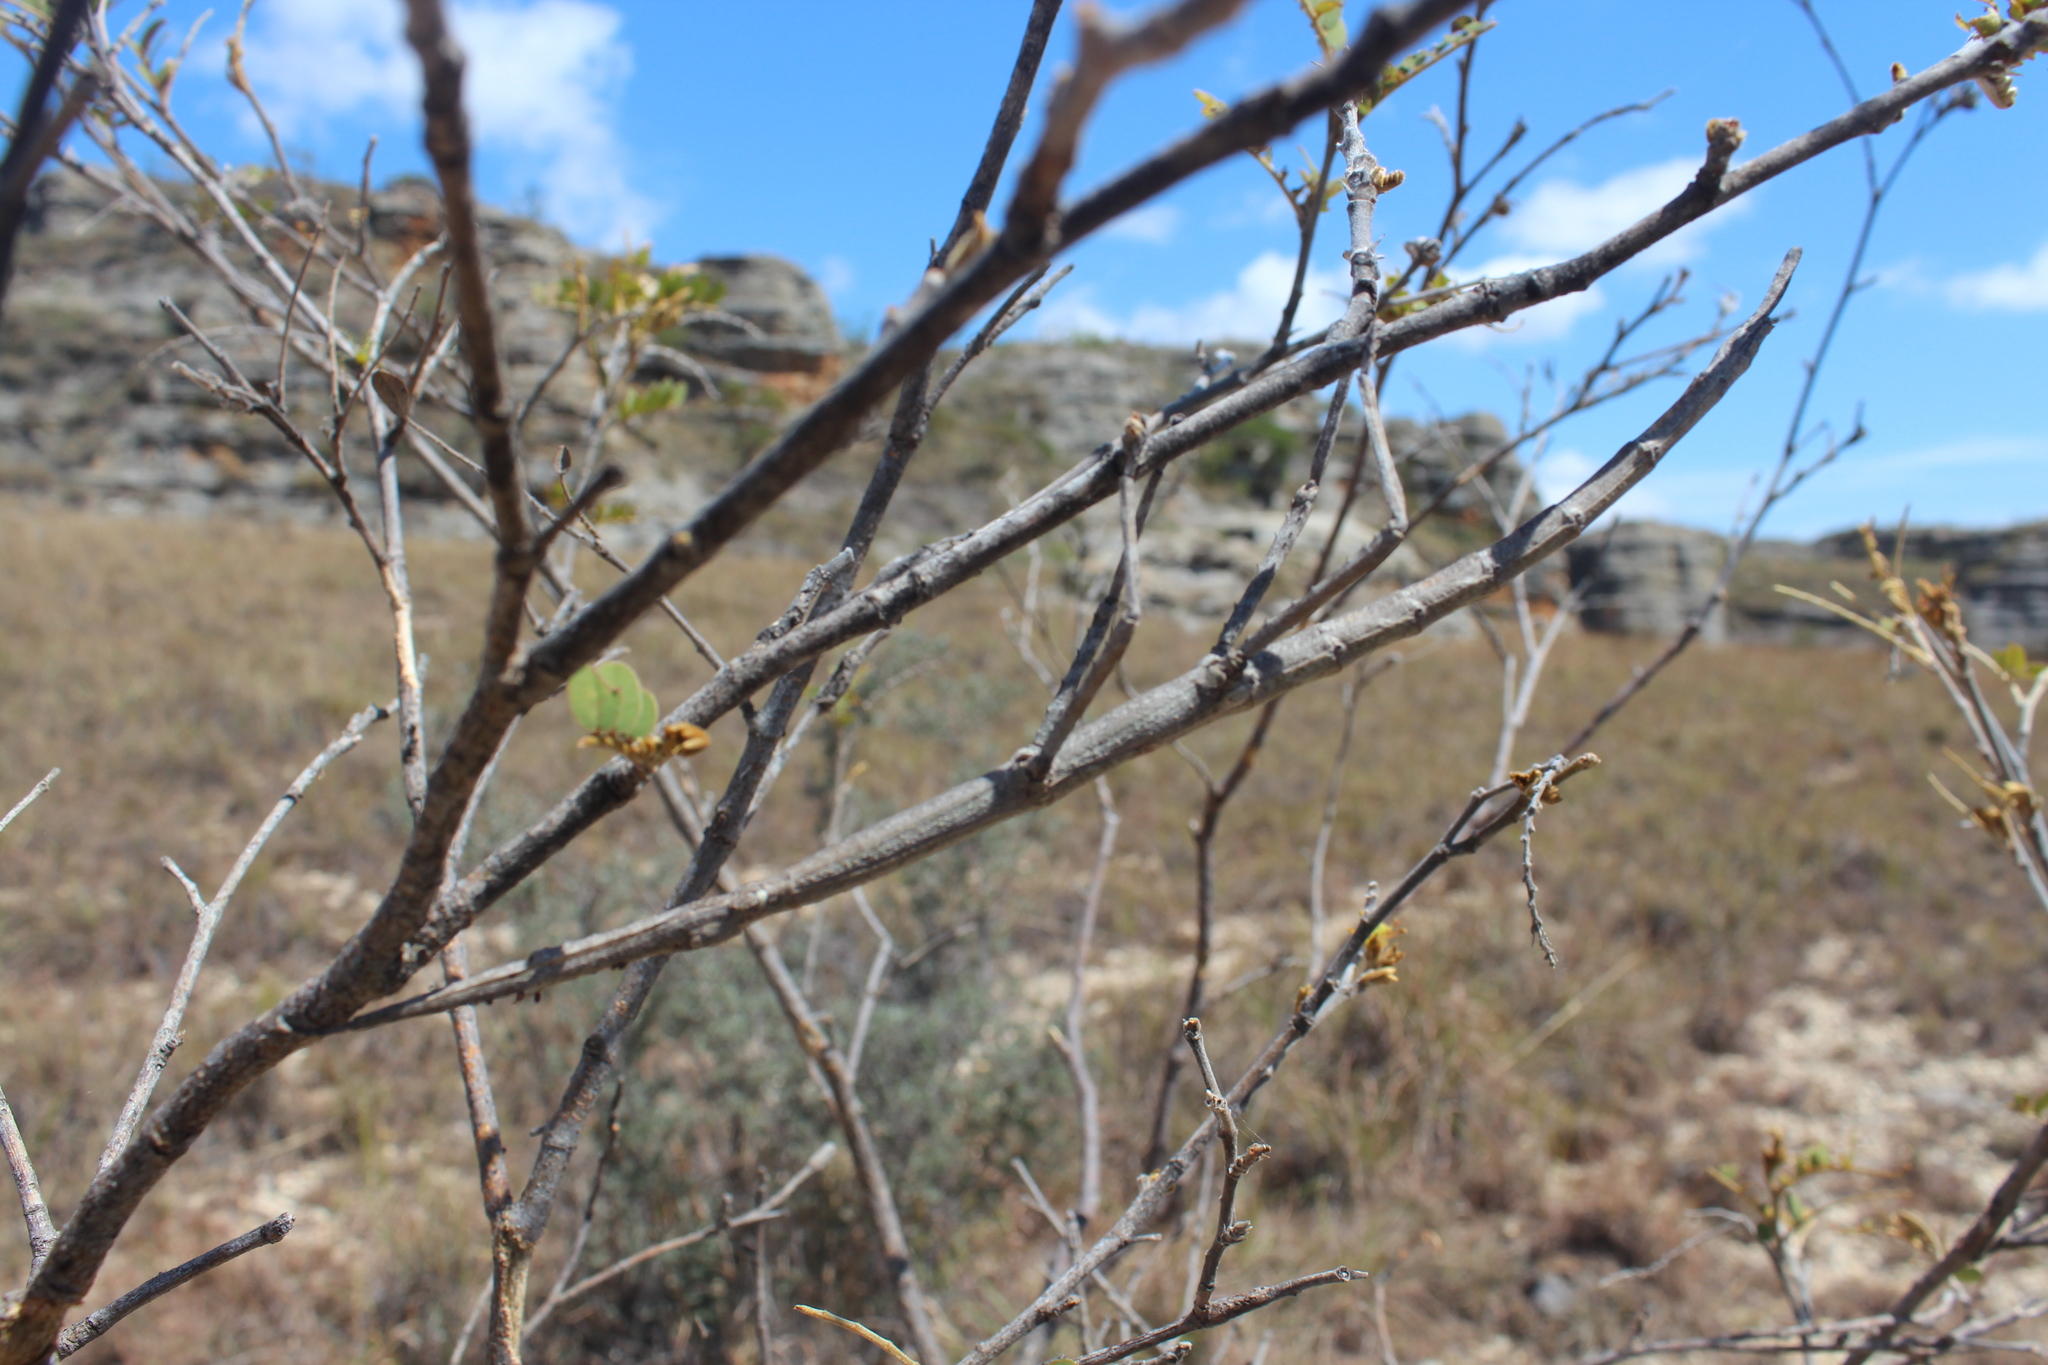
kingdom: Animalia
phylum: Arthropoda
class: Insecta
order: Phasmida
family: Phasmatidae
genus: Achrioptera
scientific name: Achrioptera impennis
